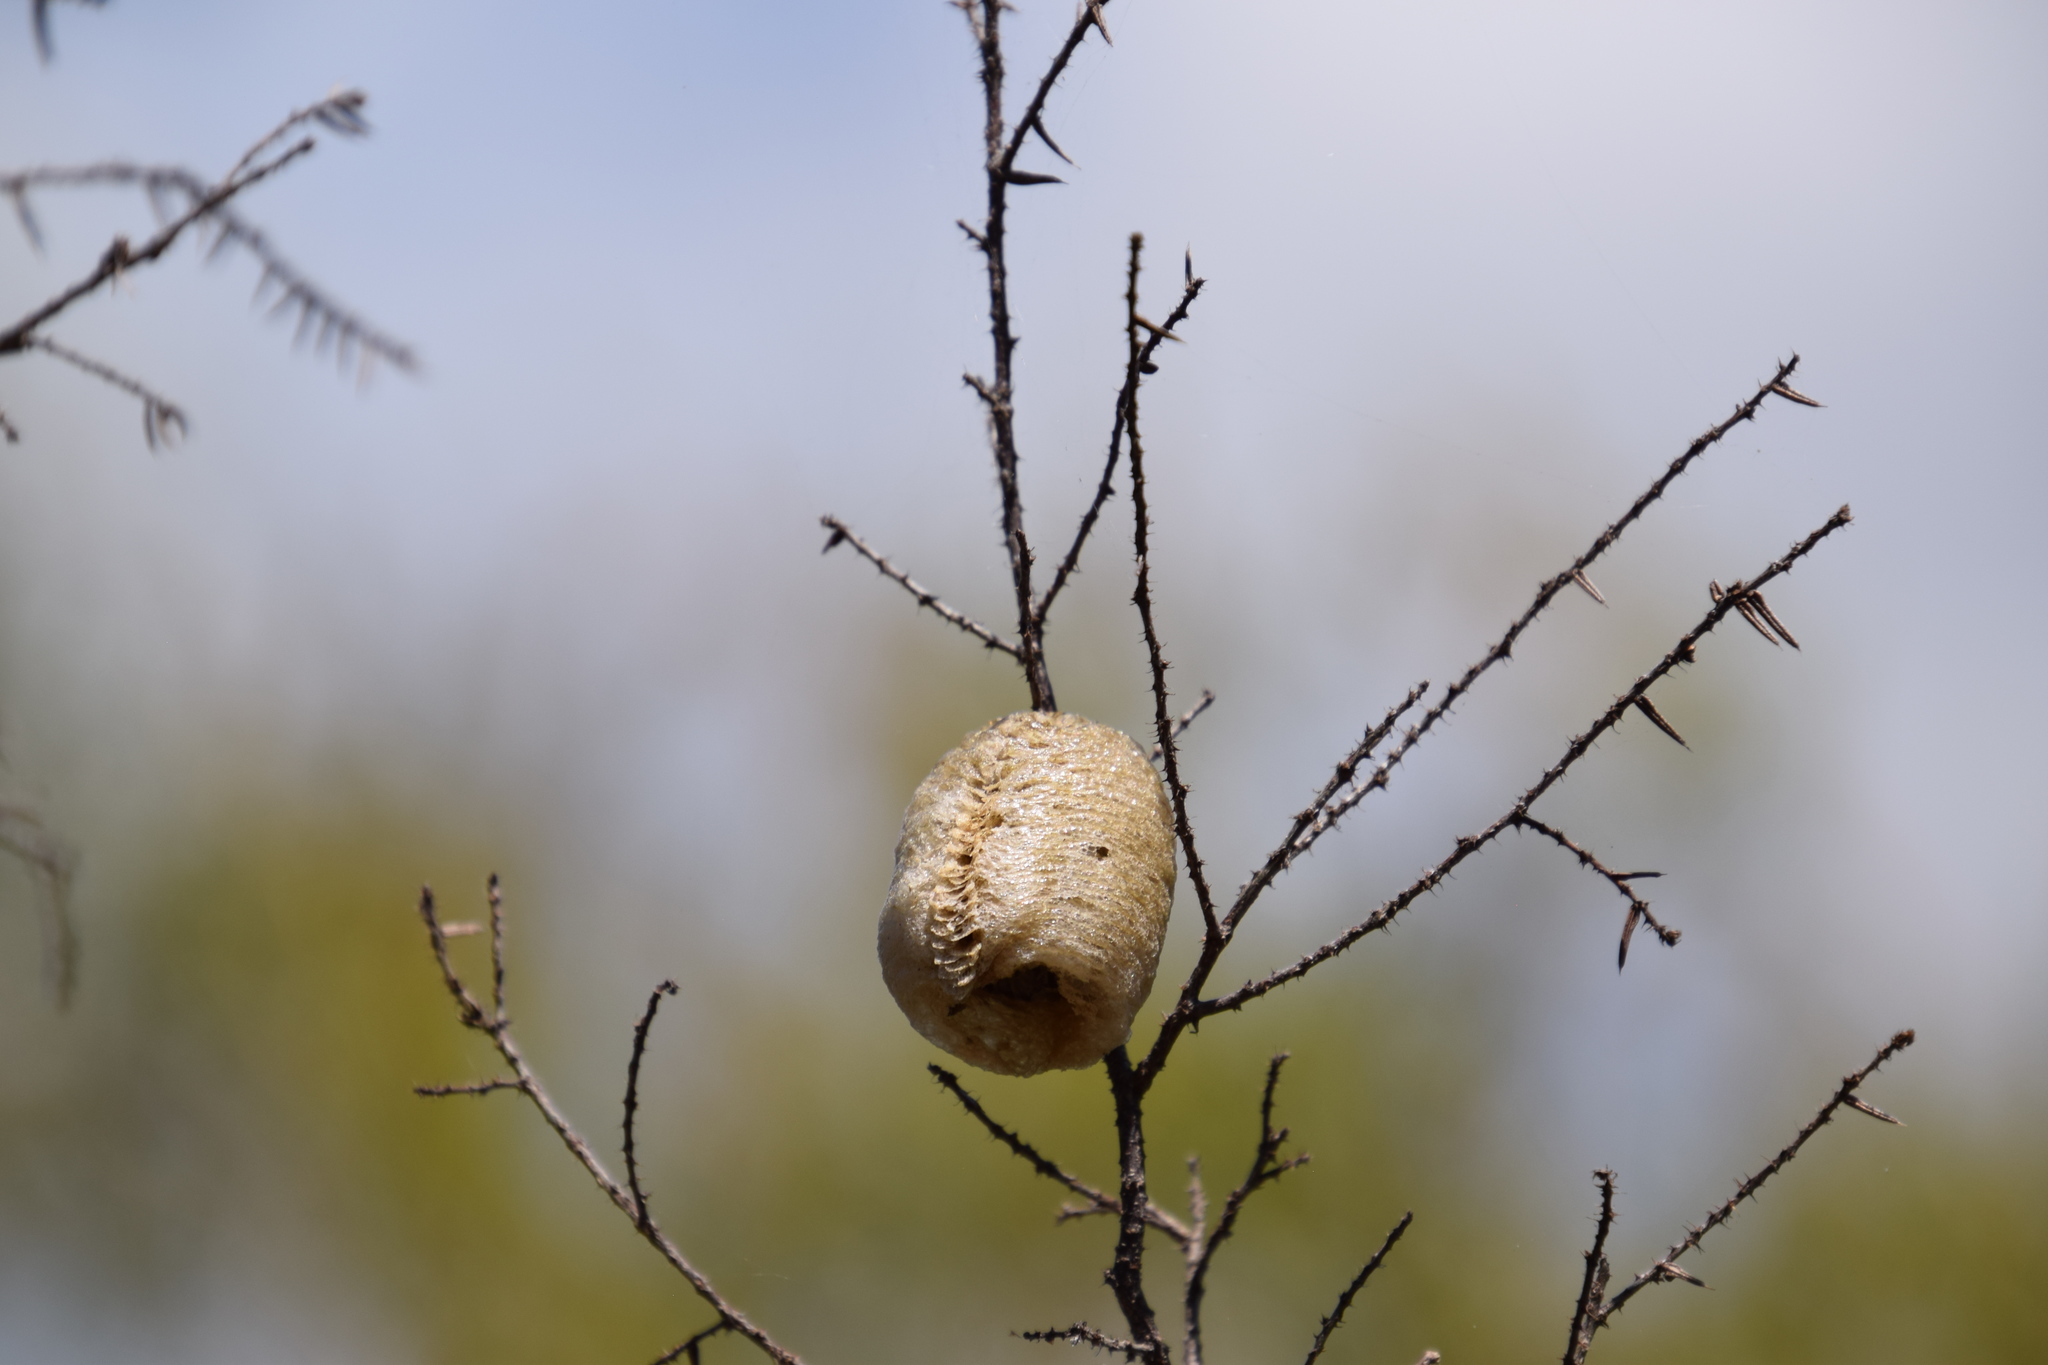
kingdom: Animalia
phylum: Arthropoda
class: Insecta
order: Mantodea
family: Mantidae
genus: Archimantis
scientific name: Archimantis latistyla
